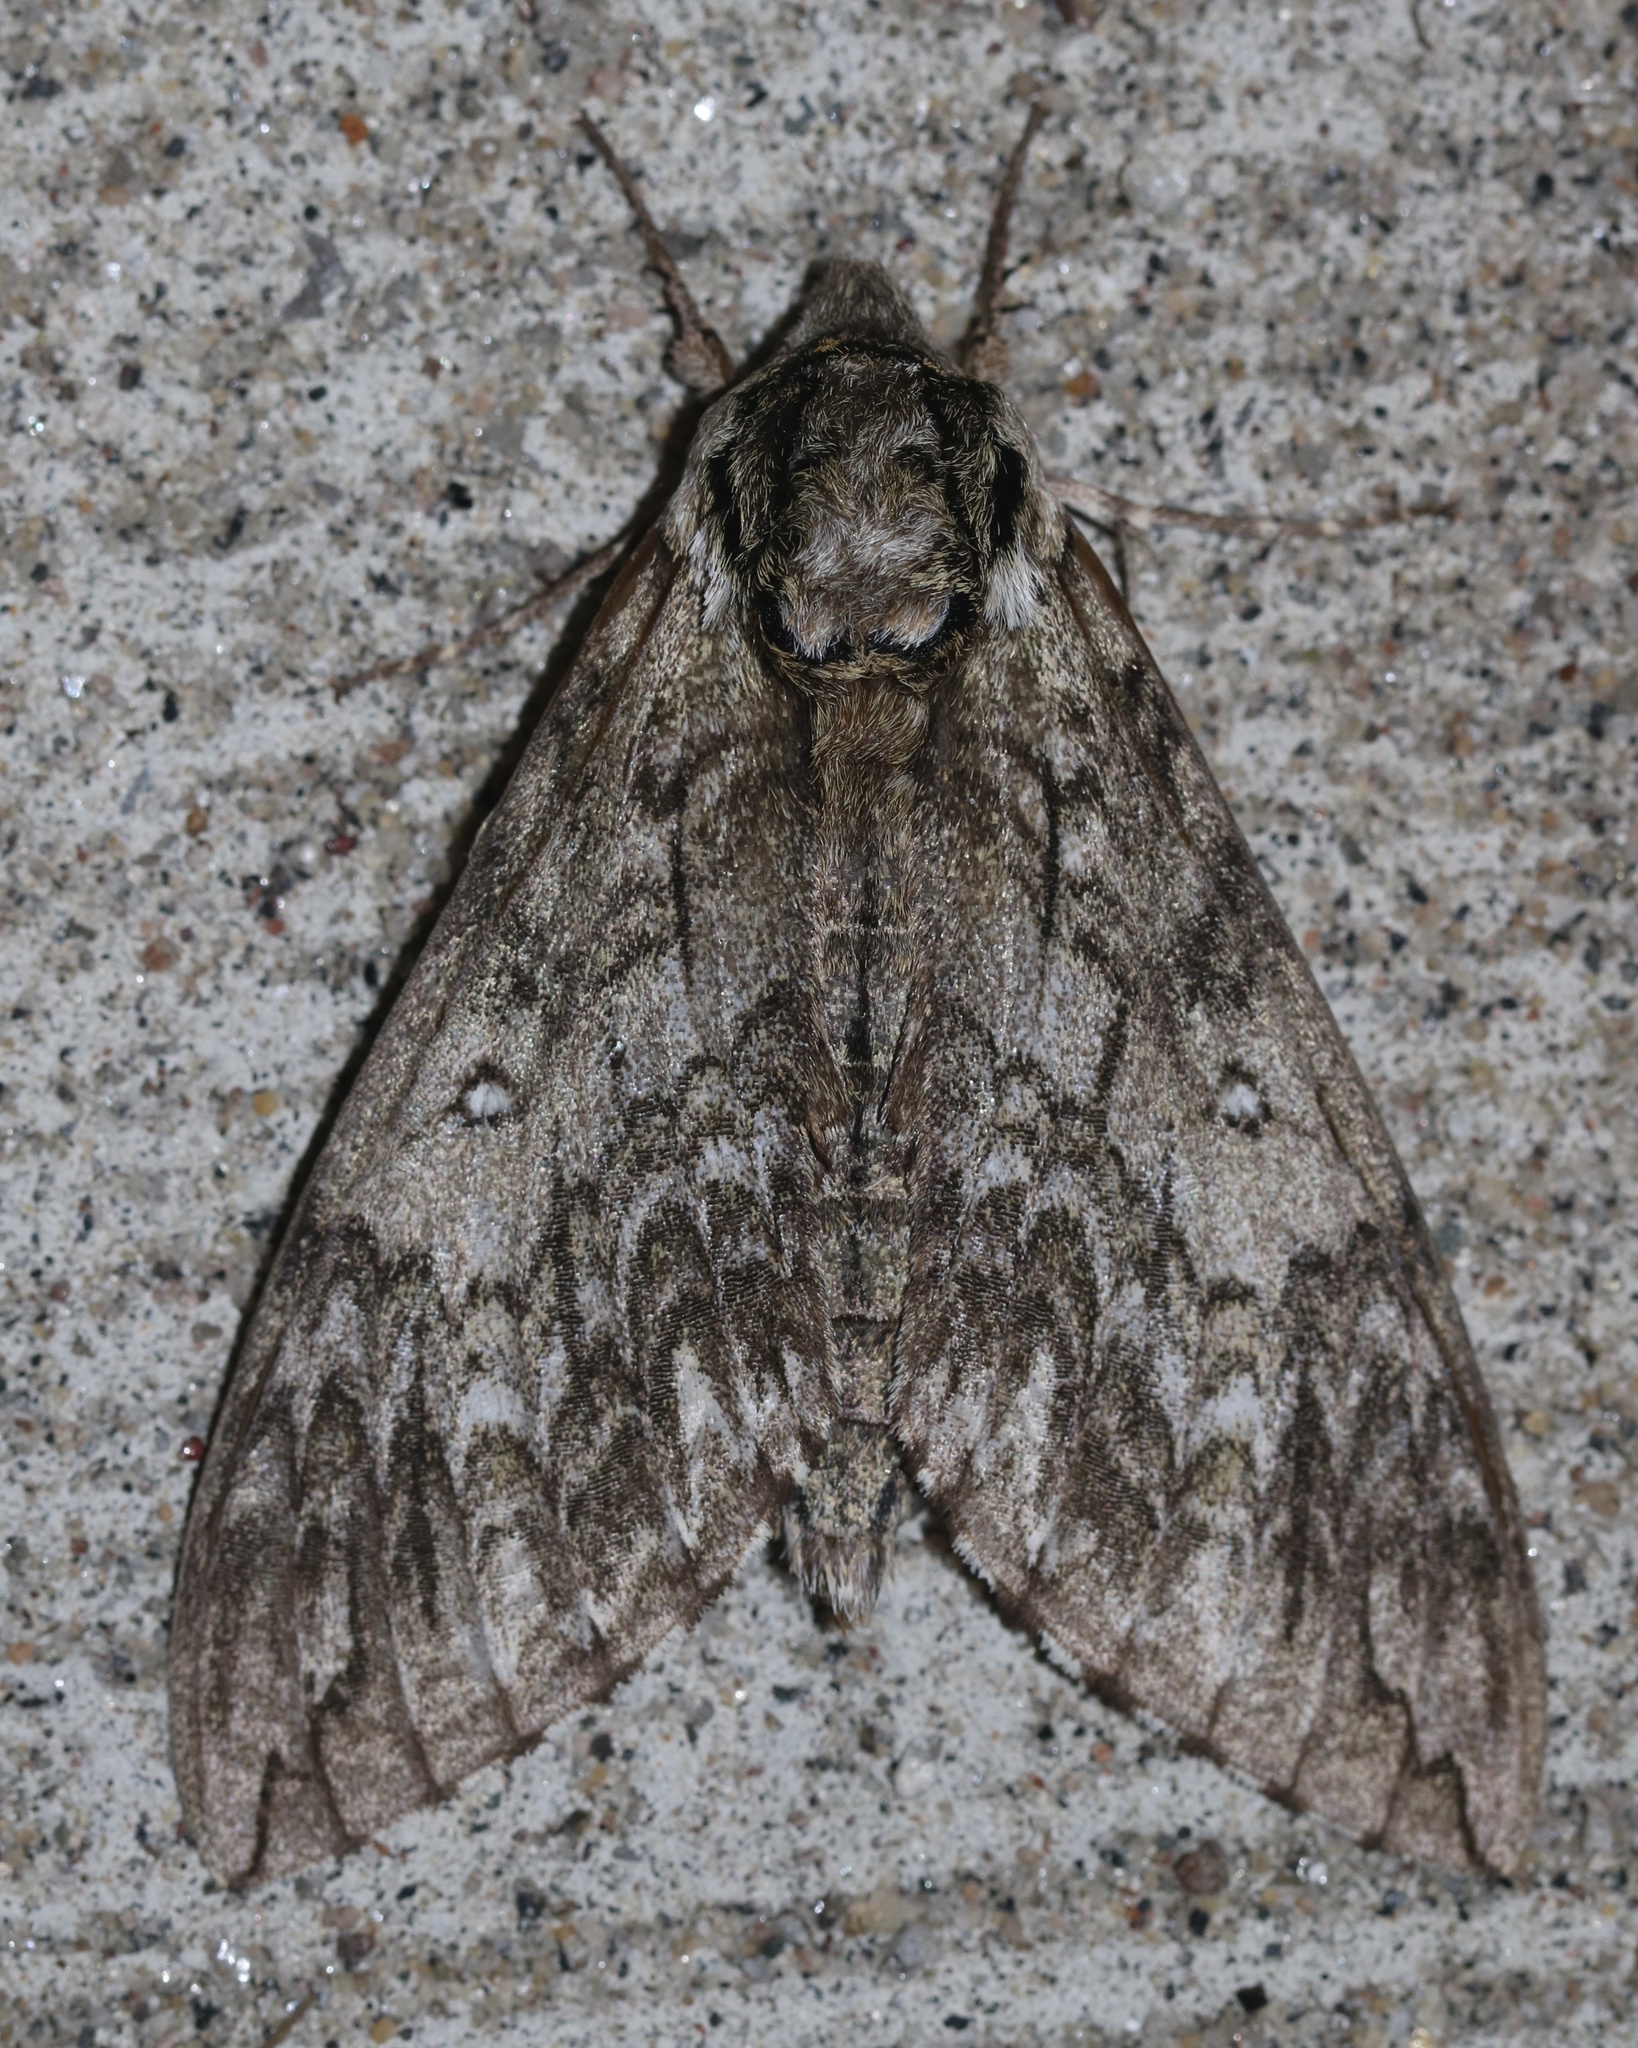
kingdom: Animalia
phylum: Arthropoda
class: Insecta
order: Lepidoptera
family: Sphingidae
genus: Ceratomia
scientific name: Ceratomia undulosa
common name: Waved sphinx
